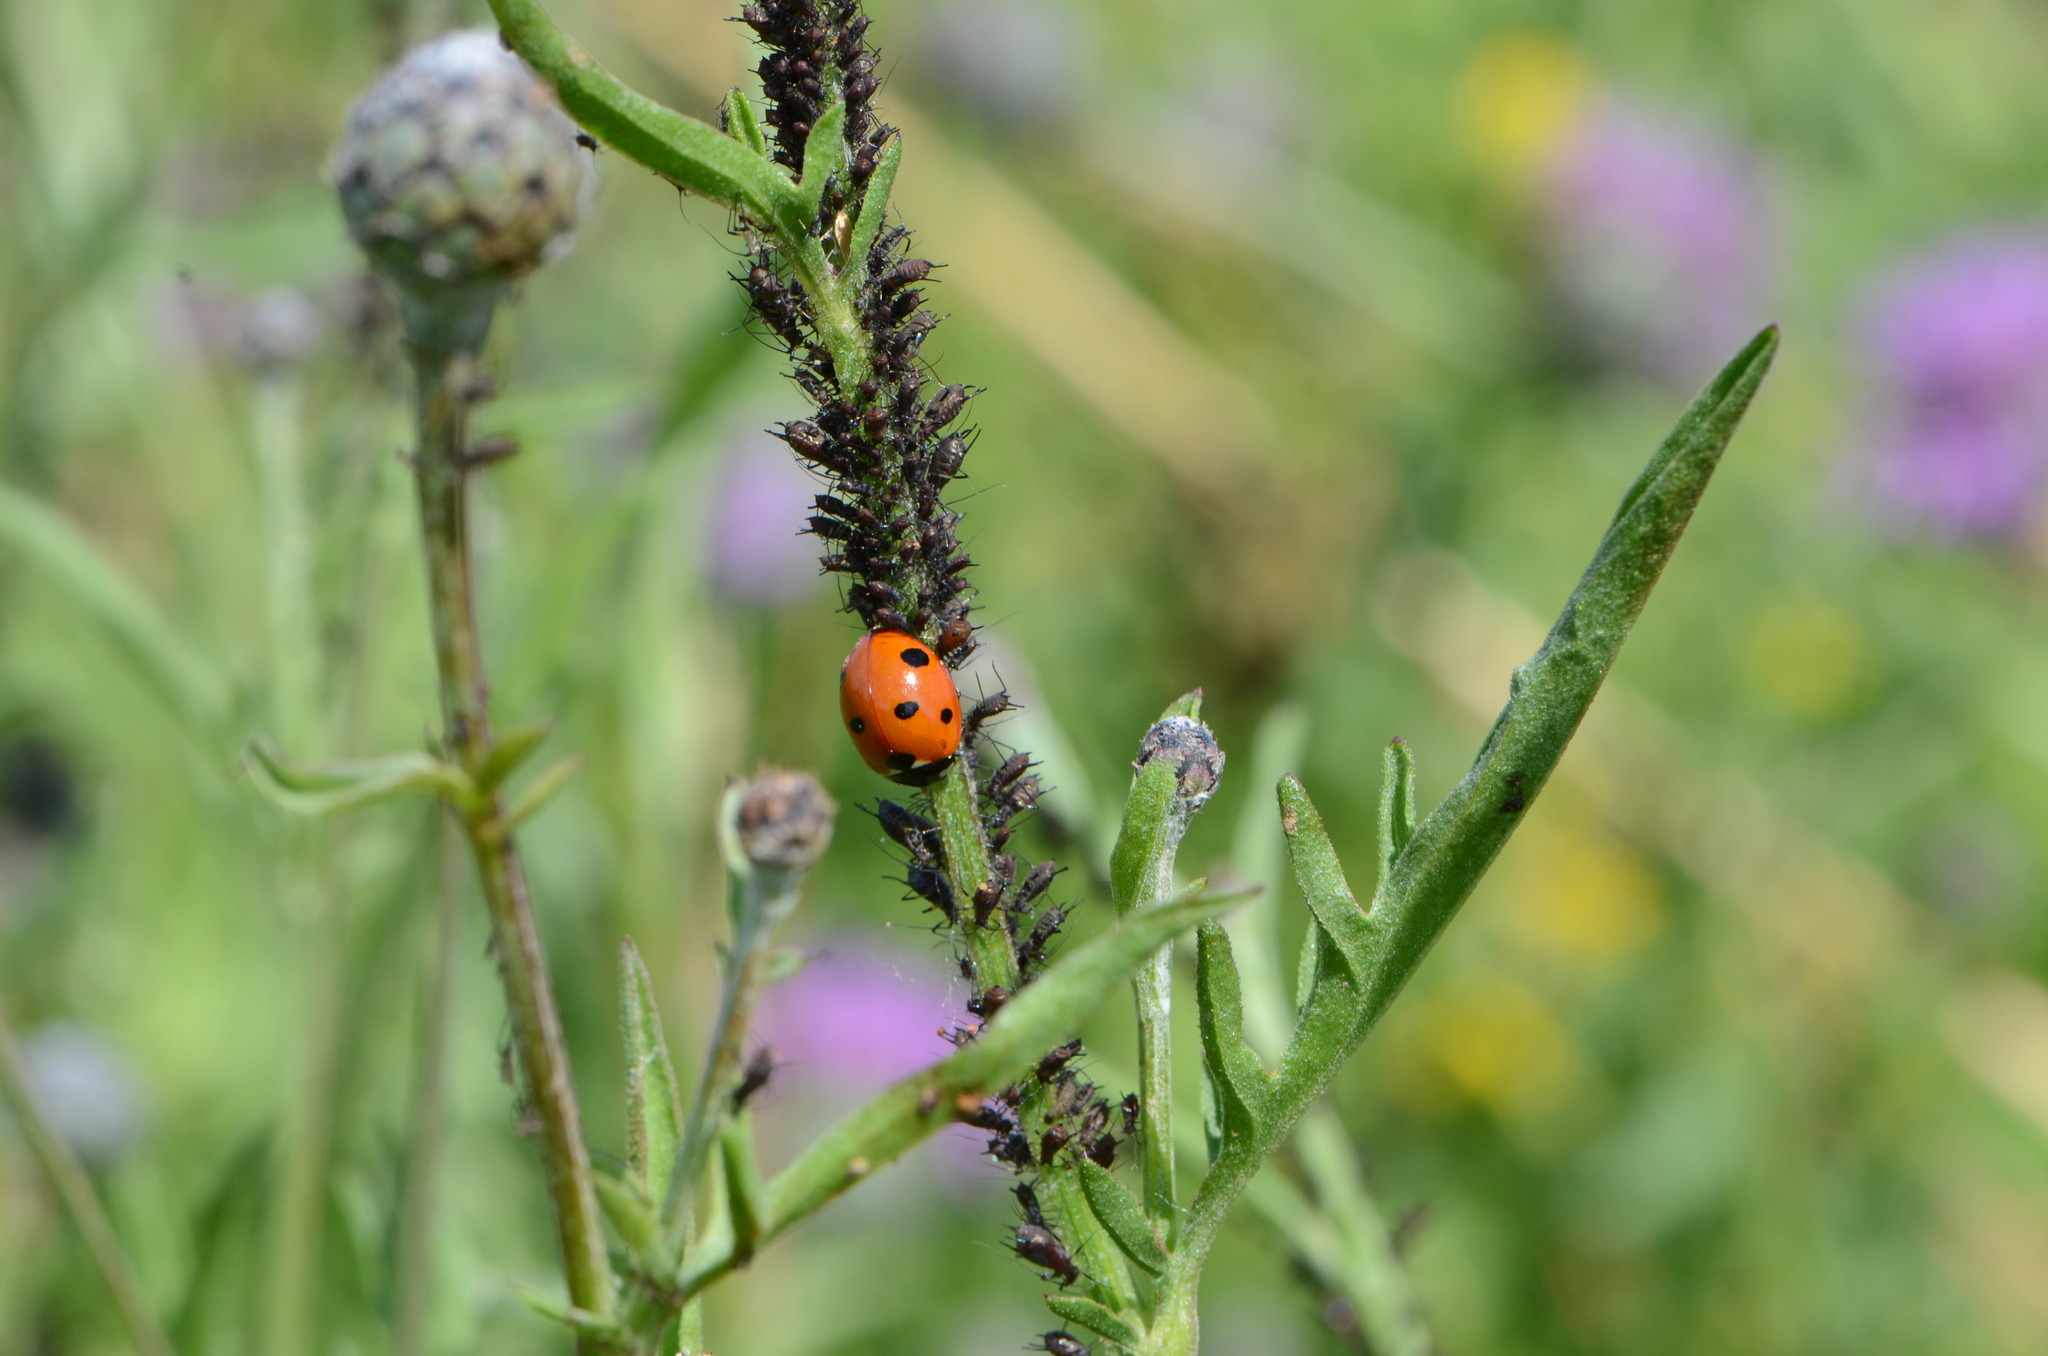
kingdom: Animalia
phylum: Arthropoda
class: Insecta
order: Coleoptera
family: Coccinellidae
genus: Coccinella
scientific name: Coccinella septempunctata
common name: Sevenspotted lady beetle
